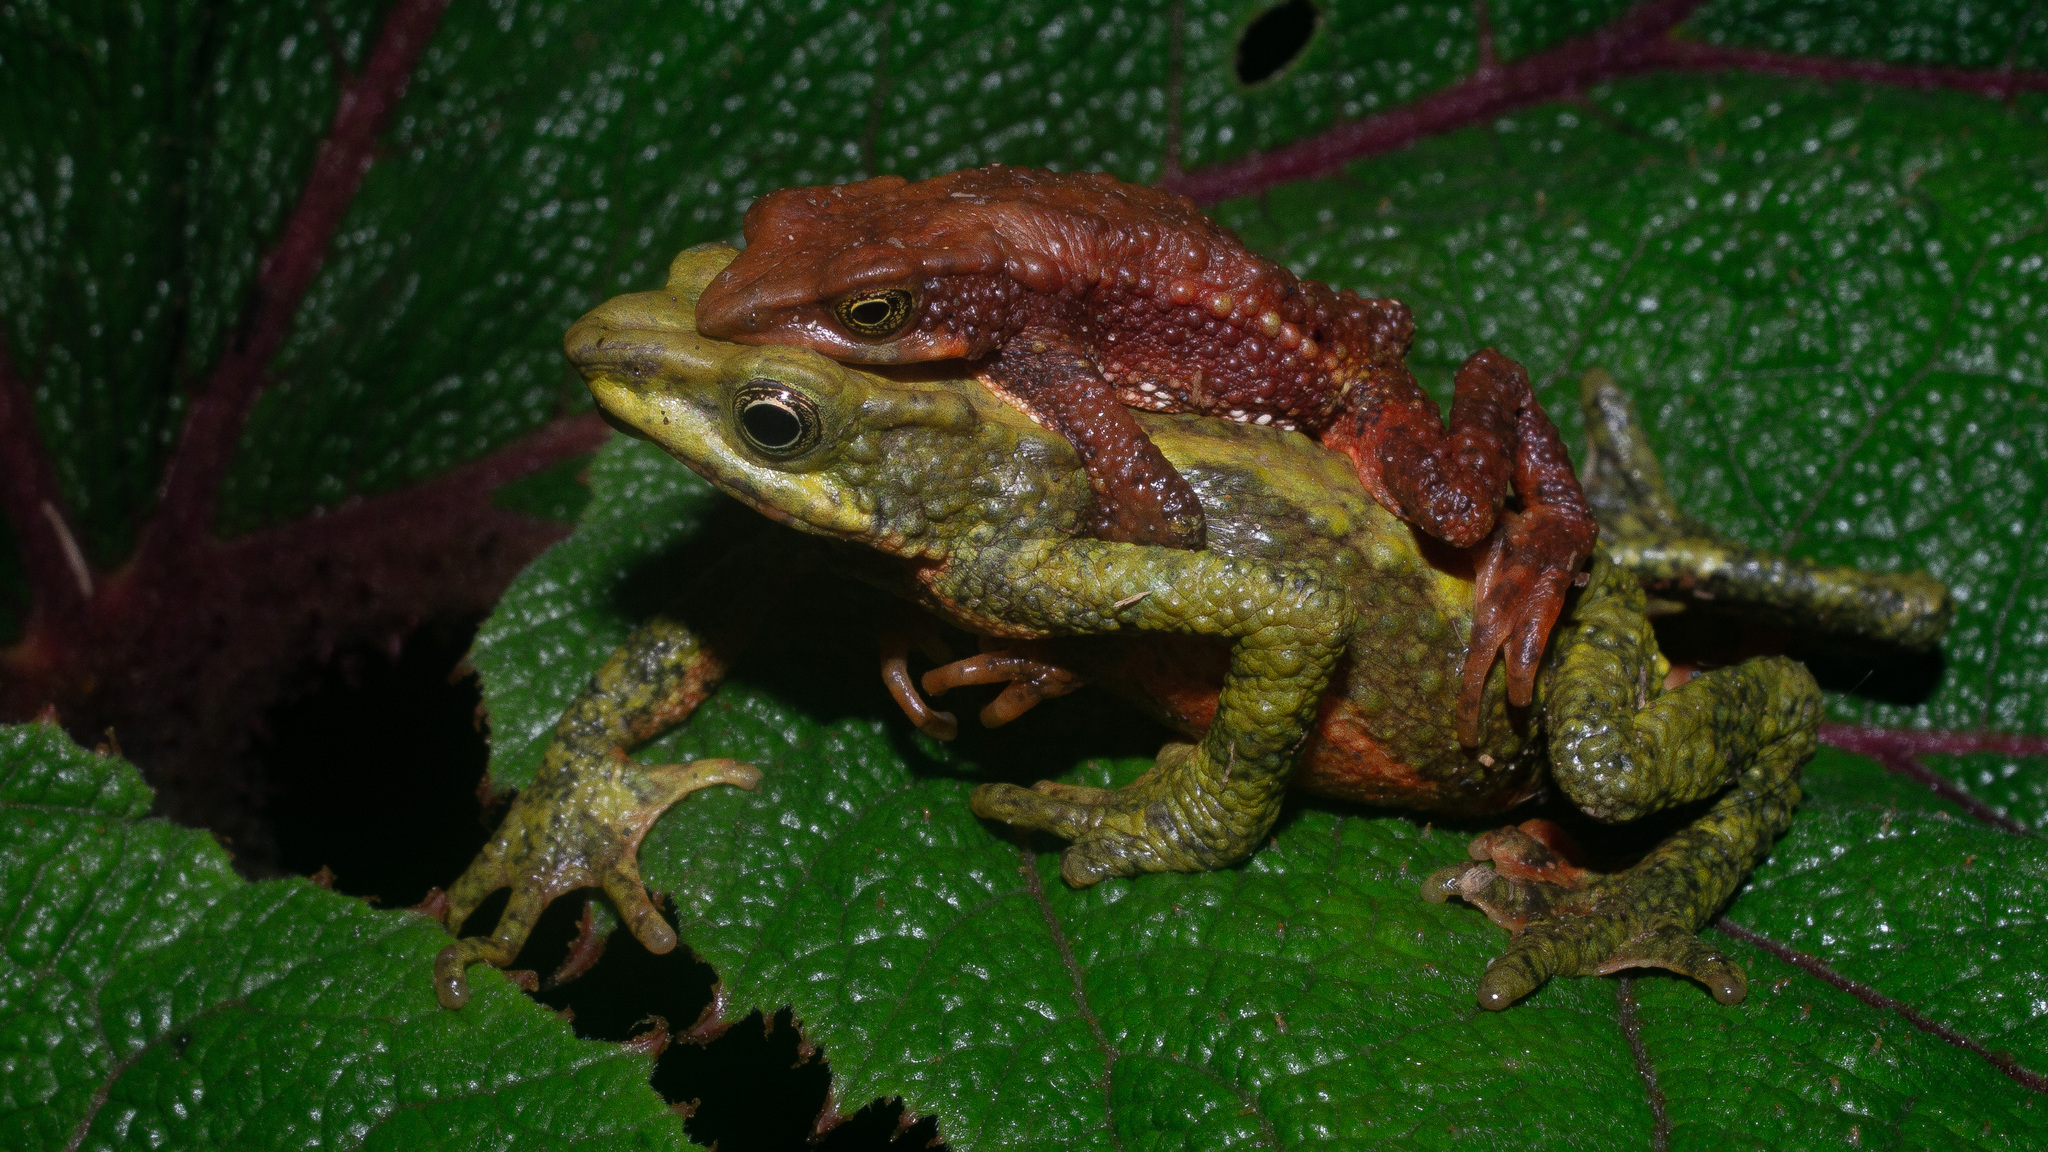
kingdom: Animalia
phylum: Chordata
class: Amphibia
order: Anura
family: Bufonidae
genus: Atelopus
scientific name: Atelopus laetissimus
